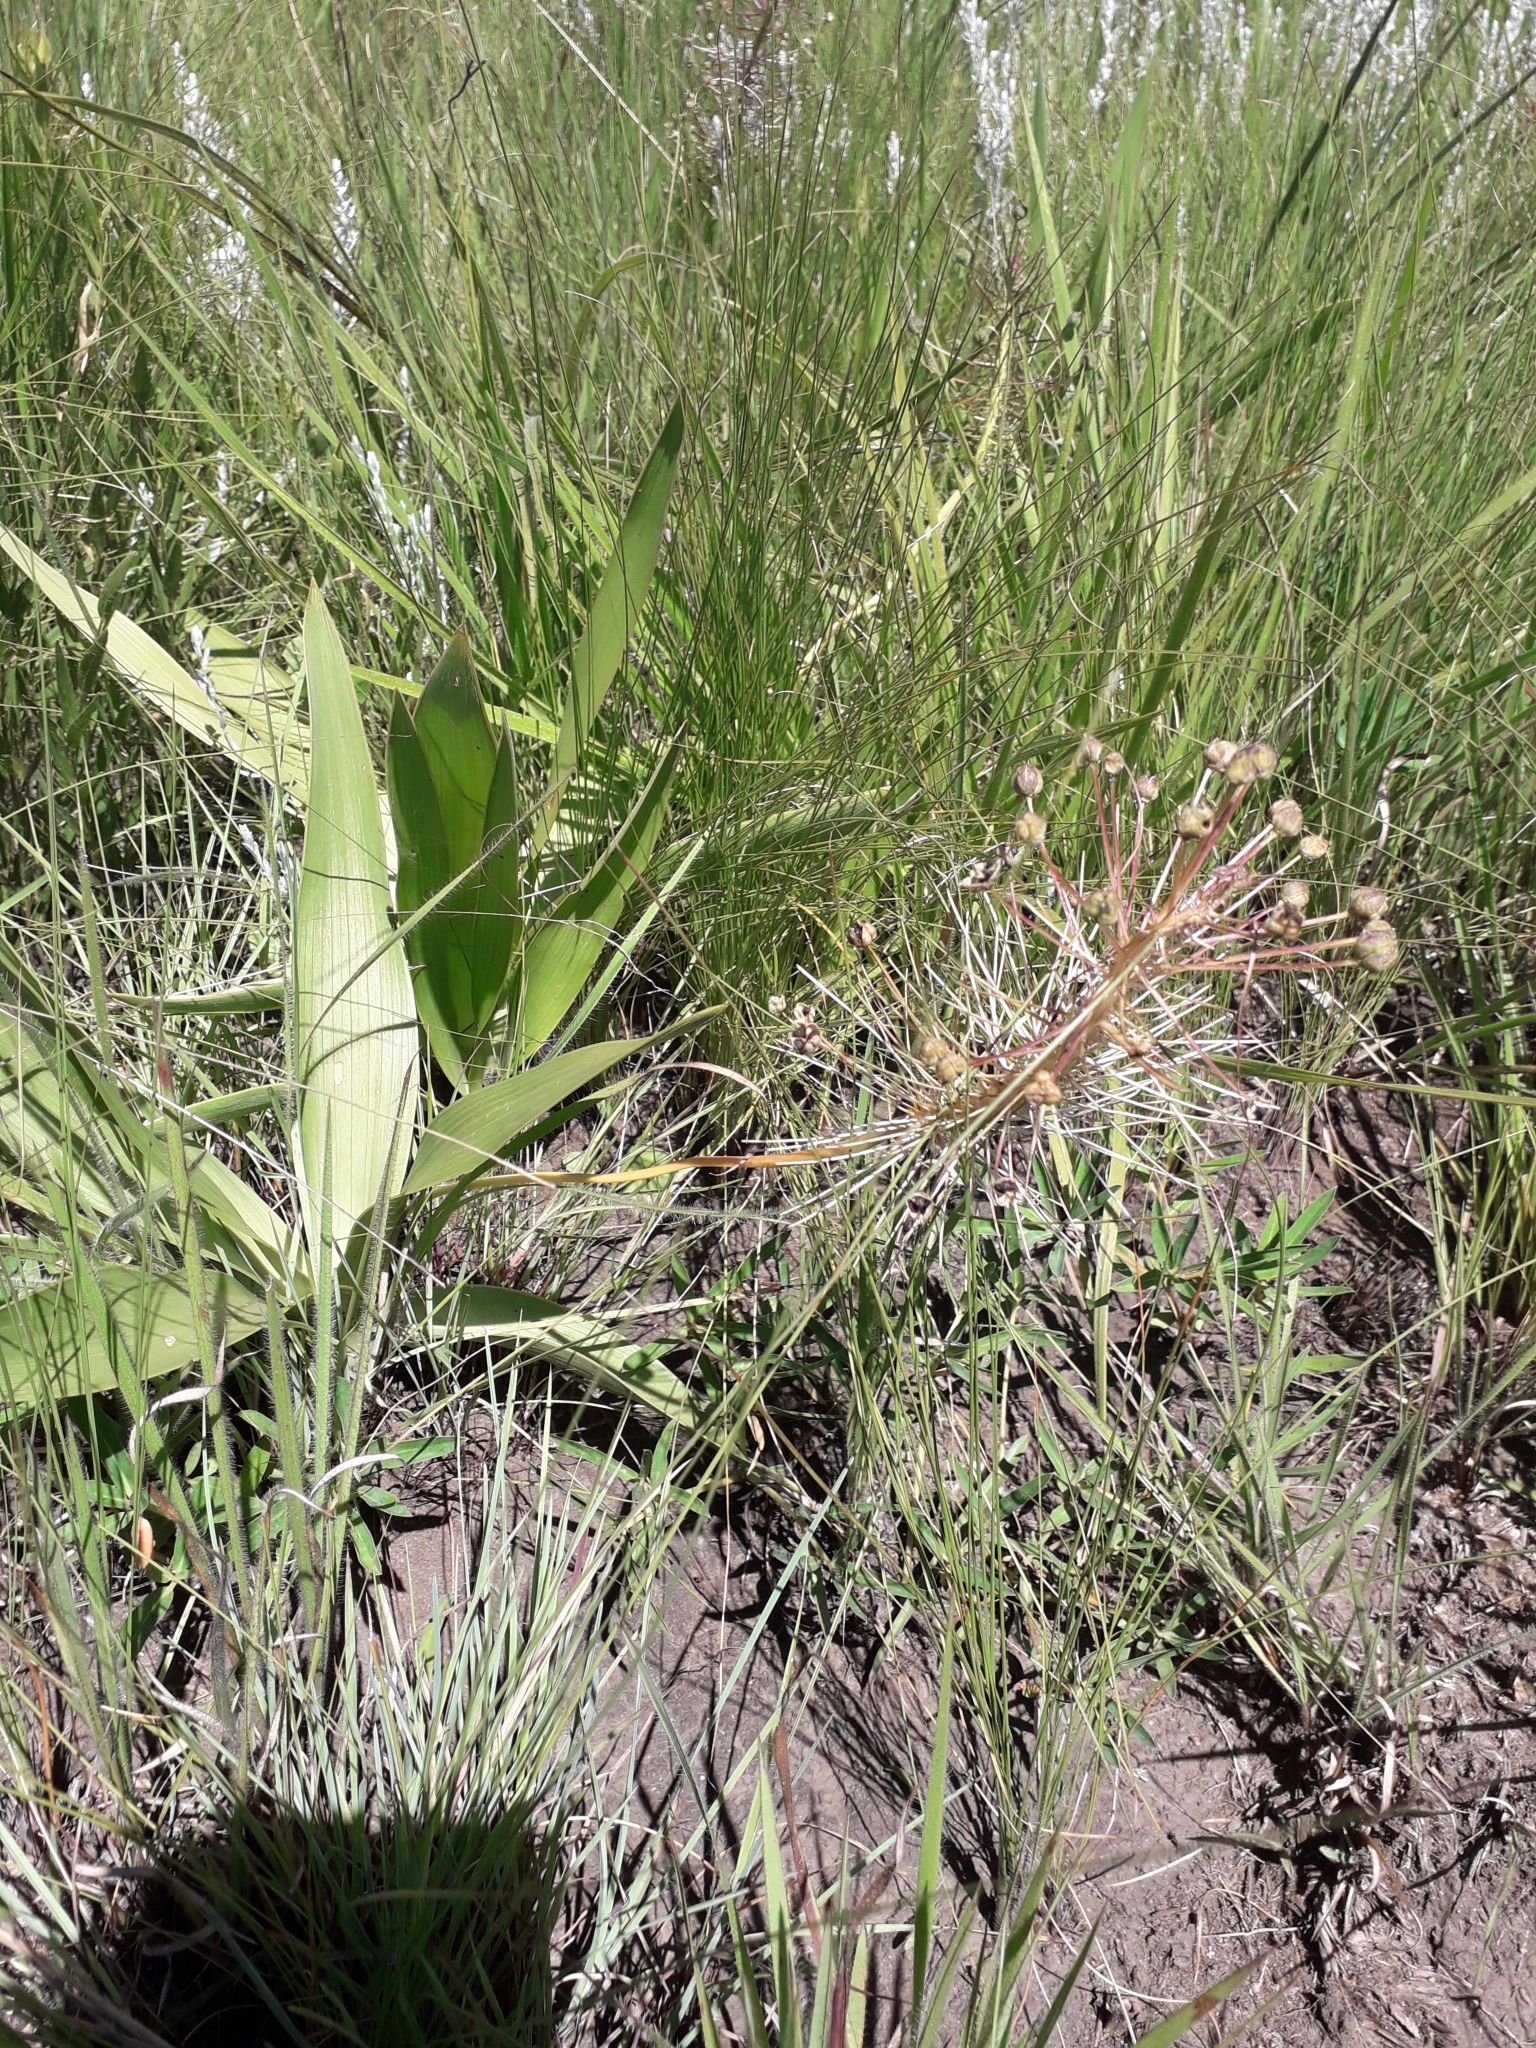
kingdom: Plantae
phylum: Tracheophyta
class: Liliopsida
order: Asparagales
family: Asparagaceae
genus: Schizocarphus
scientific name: Schizocarphus nervosus
